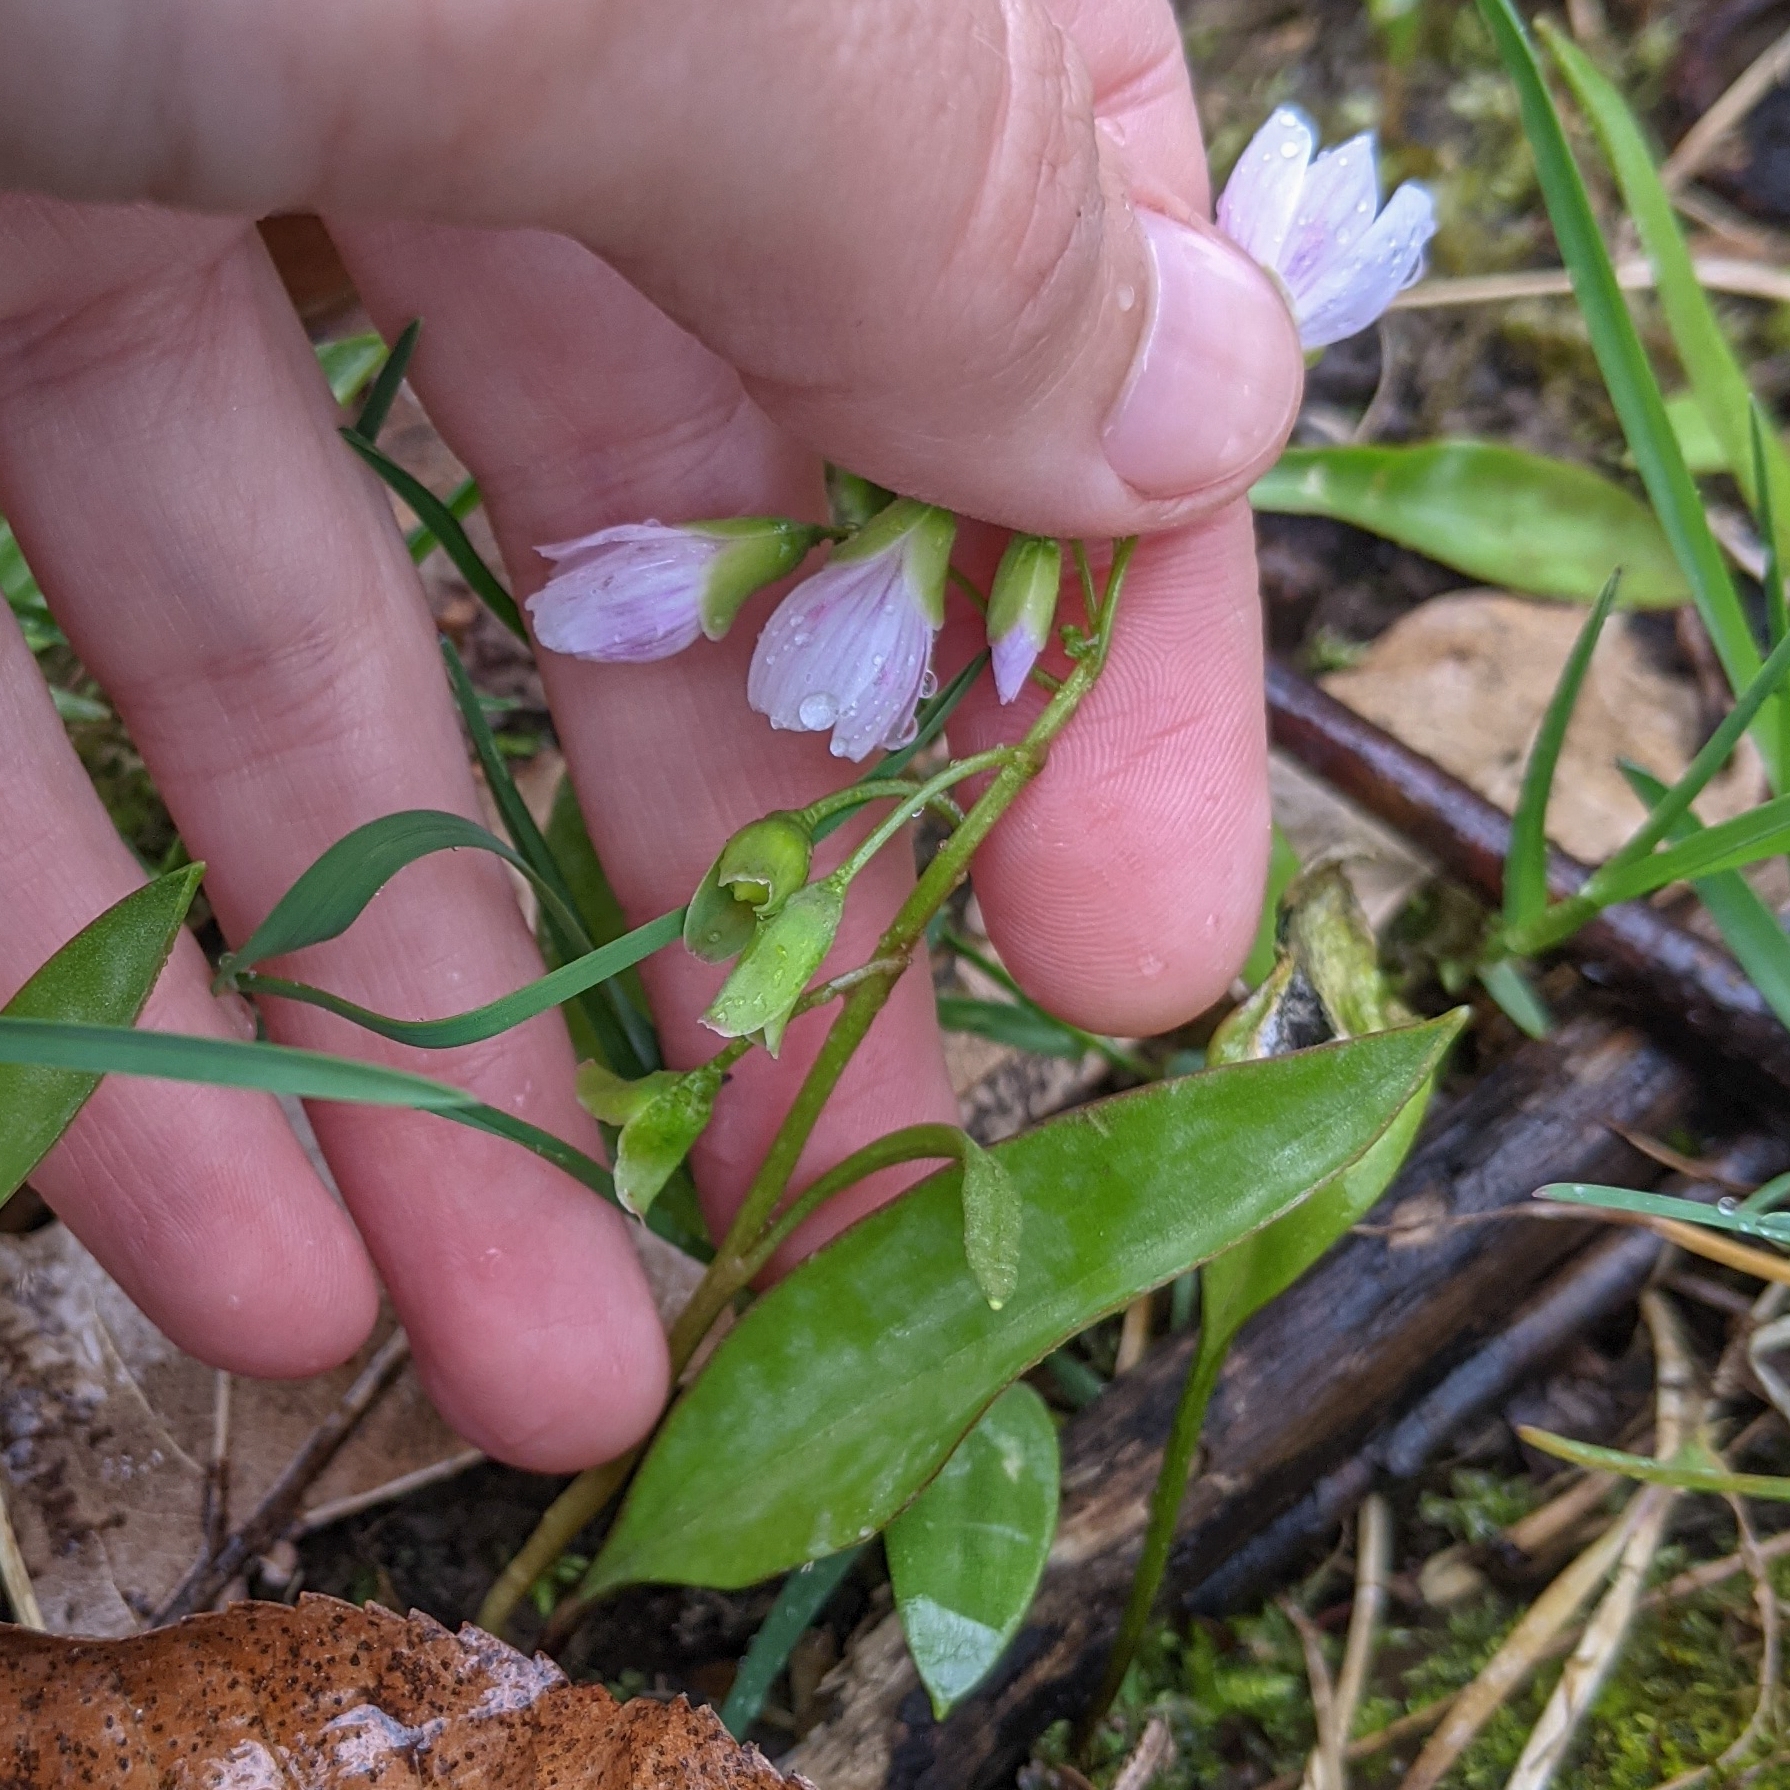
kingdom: Plantae
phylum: Tracheophyta
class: Magnoliopsida
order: Caryophyllales
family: Montiaceae
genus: Claytonia
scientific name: Claytonia virginica
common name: Virginia springbeauty
